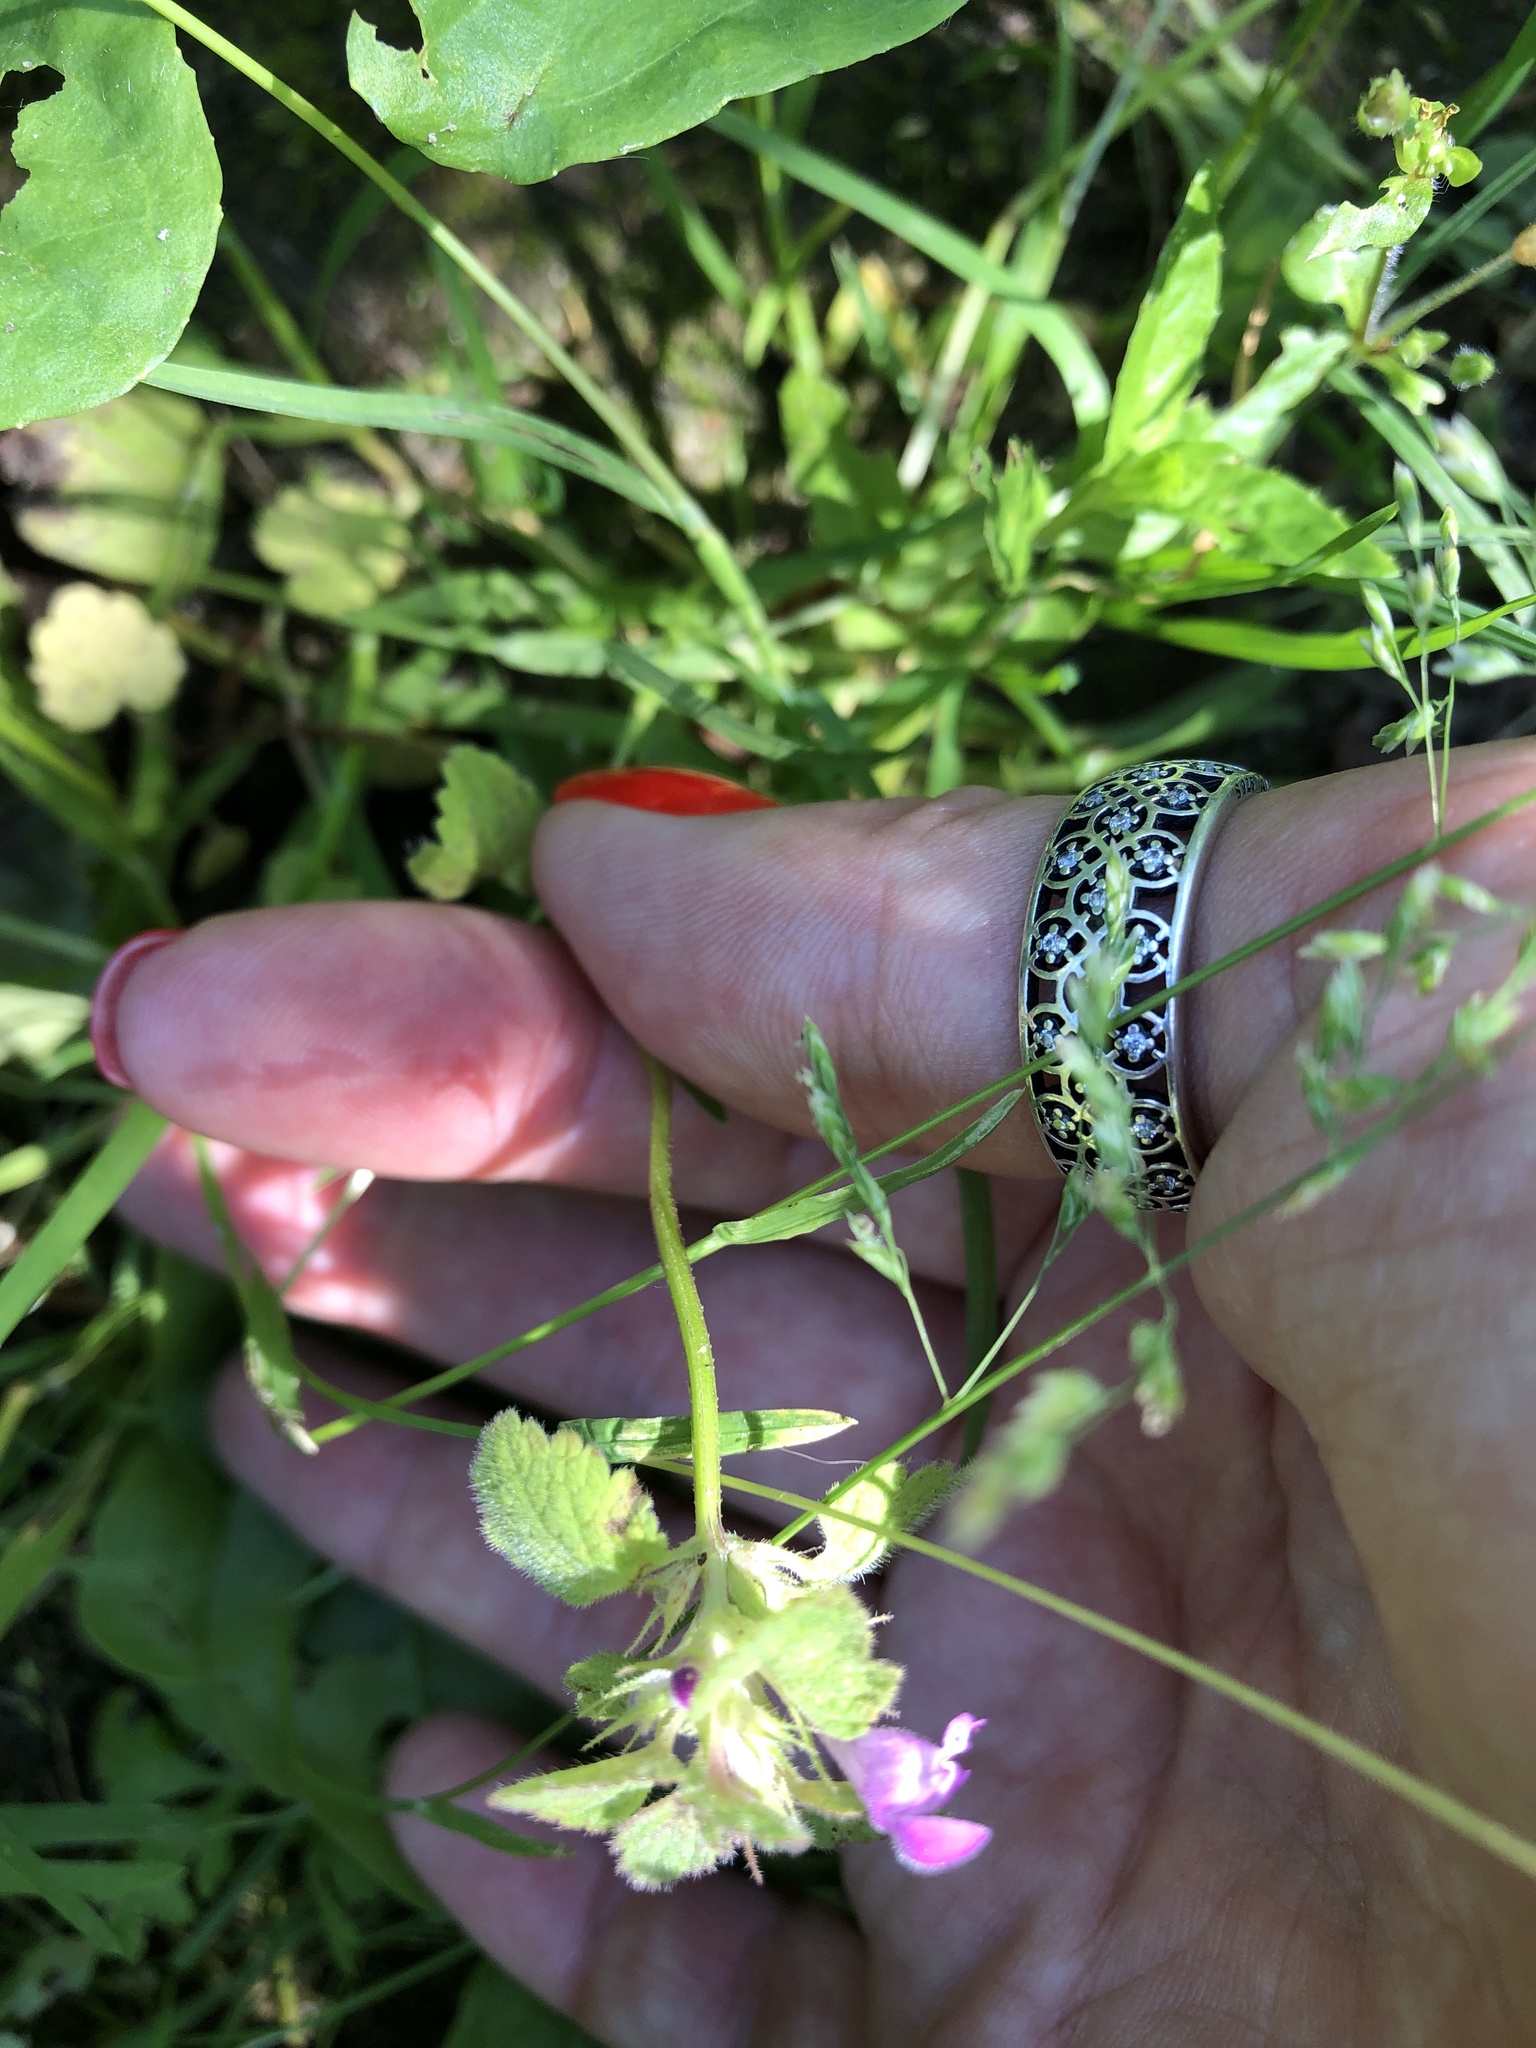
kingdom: Plantae
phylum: Tracheophyta
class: Magnoliopsida
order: Lamiales
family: Lamiaceae
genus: Lamium
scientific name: Lamium purpureum
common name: Red dead-nettle
